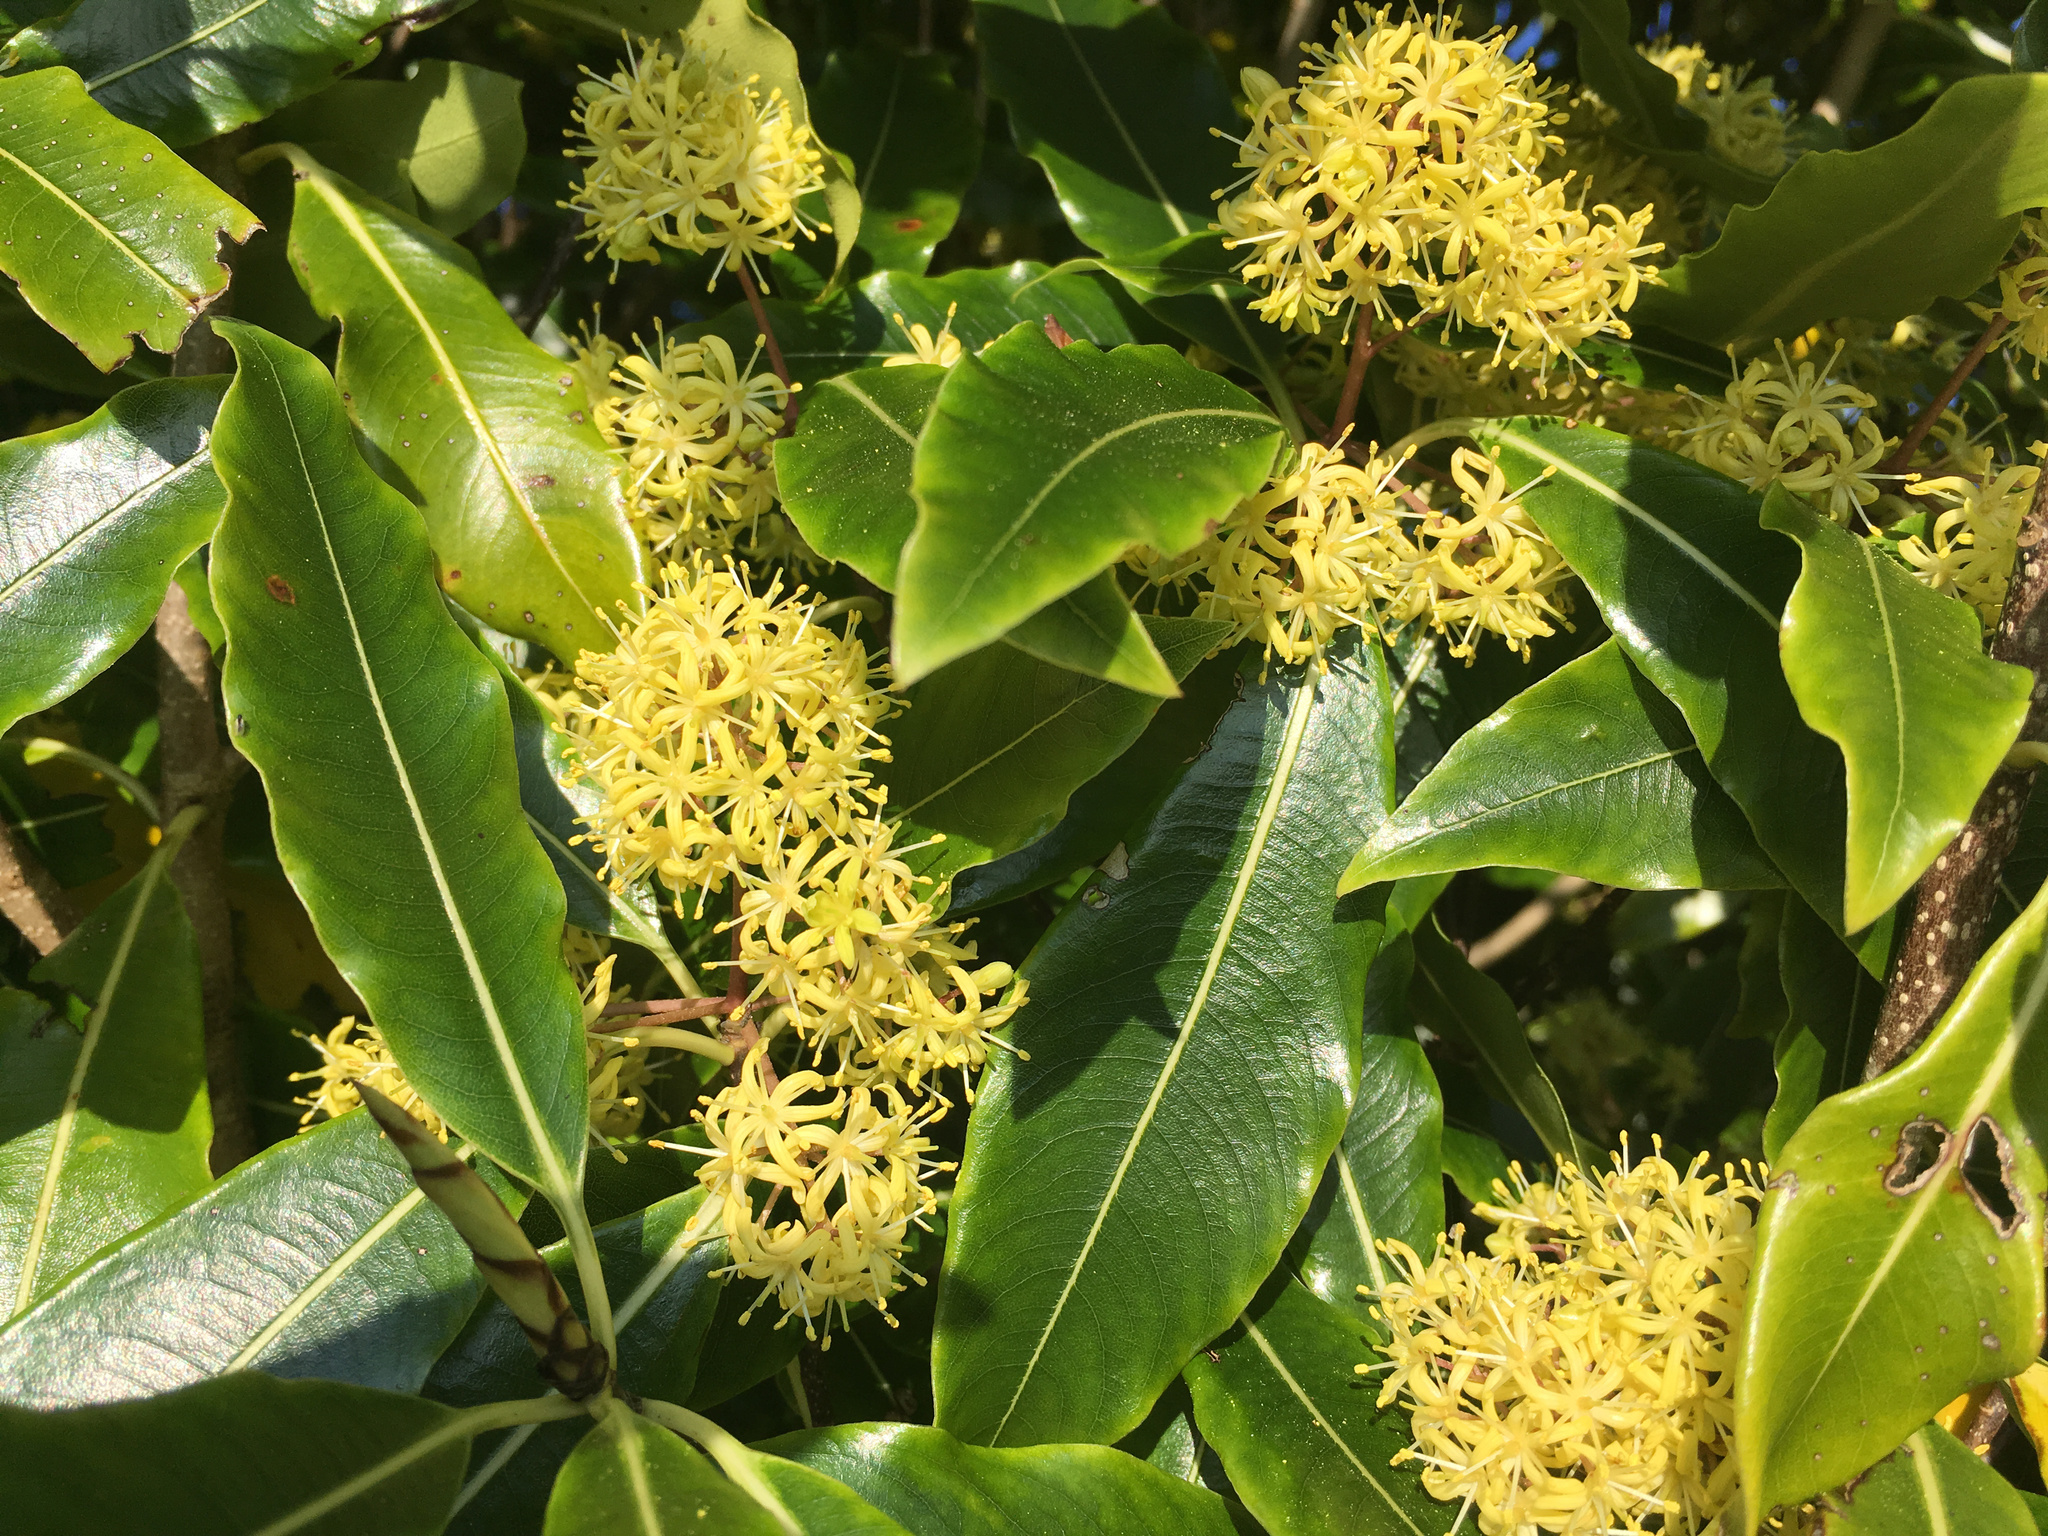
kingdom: Plantae
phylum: Tracheophyta
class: Magnoliopsida
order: Apiales
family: Pittosporaceae
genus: Pittosporum
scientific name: Pittosporum eugenioides
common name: Lemonwood
